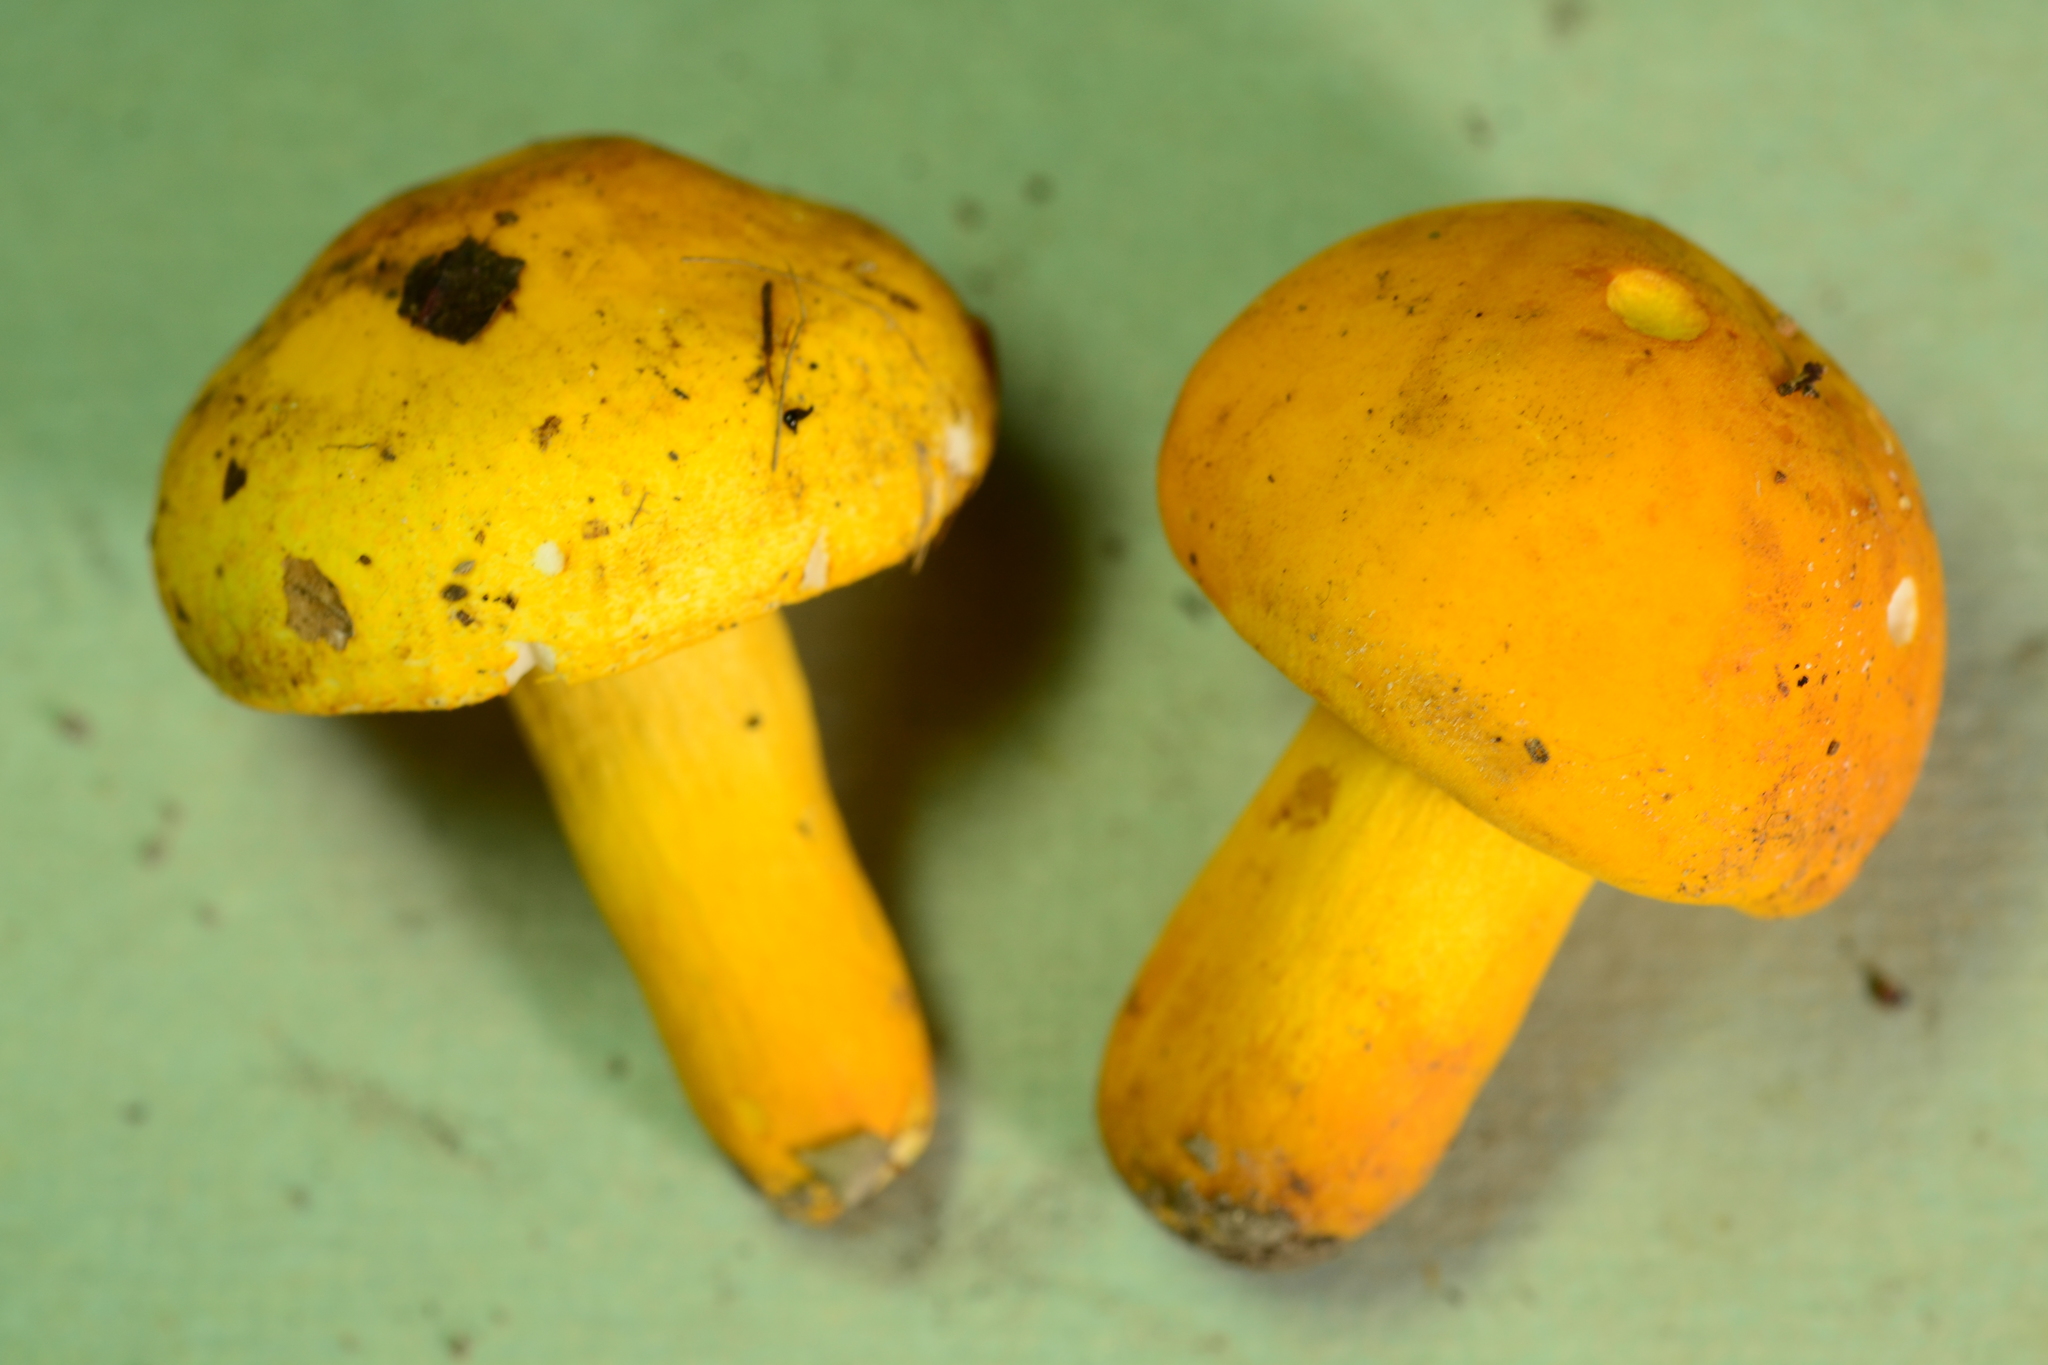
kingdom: Fungi
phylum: Basidiomycota
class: Agaricomycetes
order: Russulales
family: Russulaceae
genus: Russula
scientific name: Russula flavida
